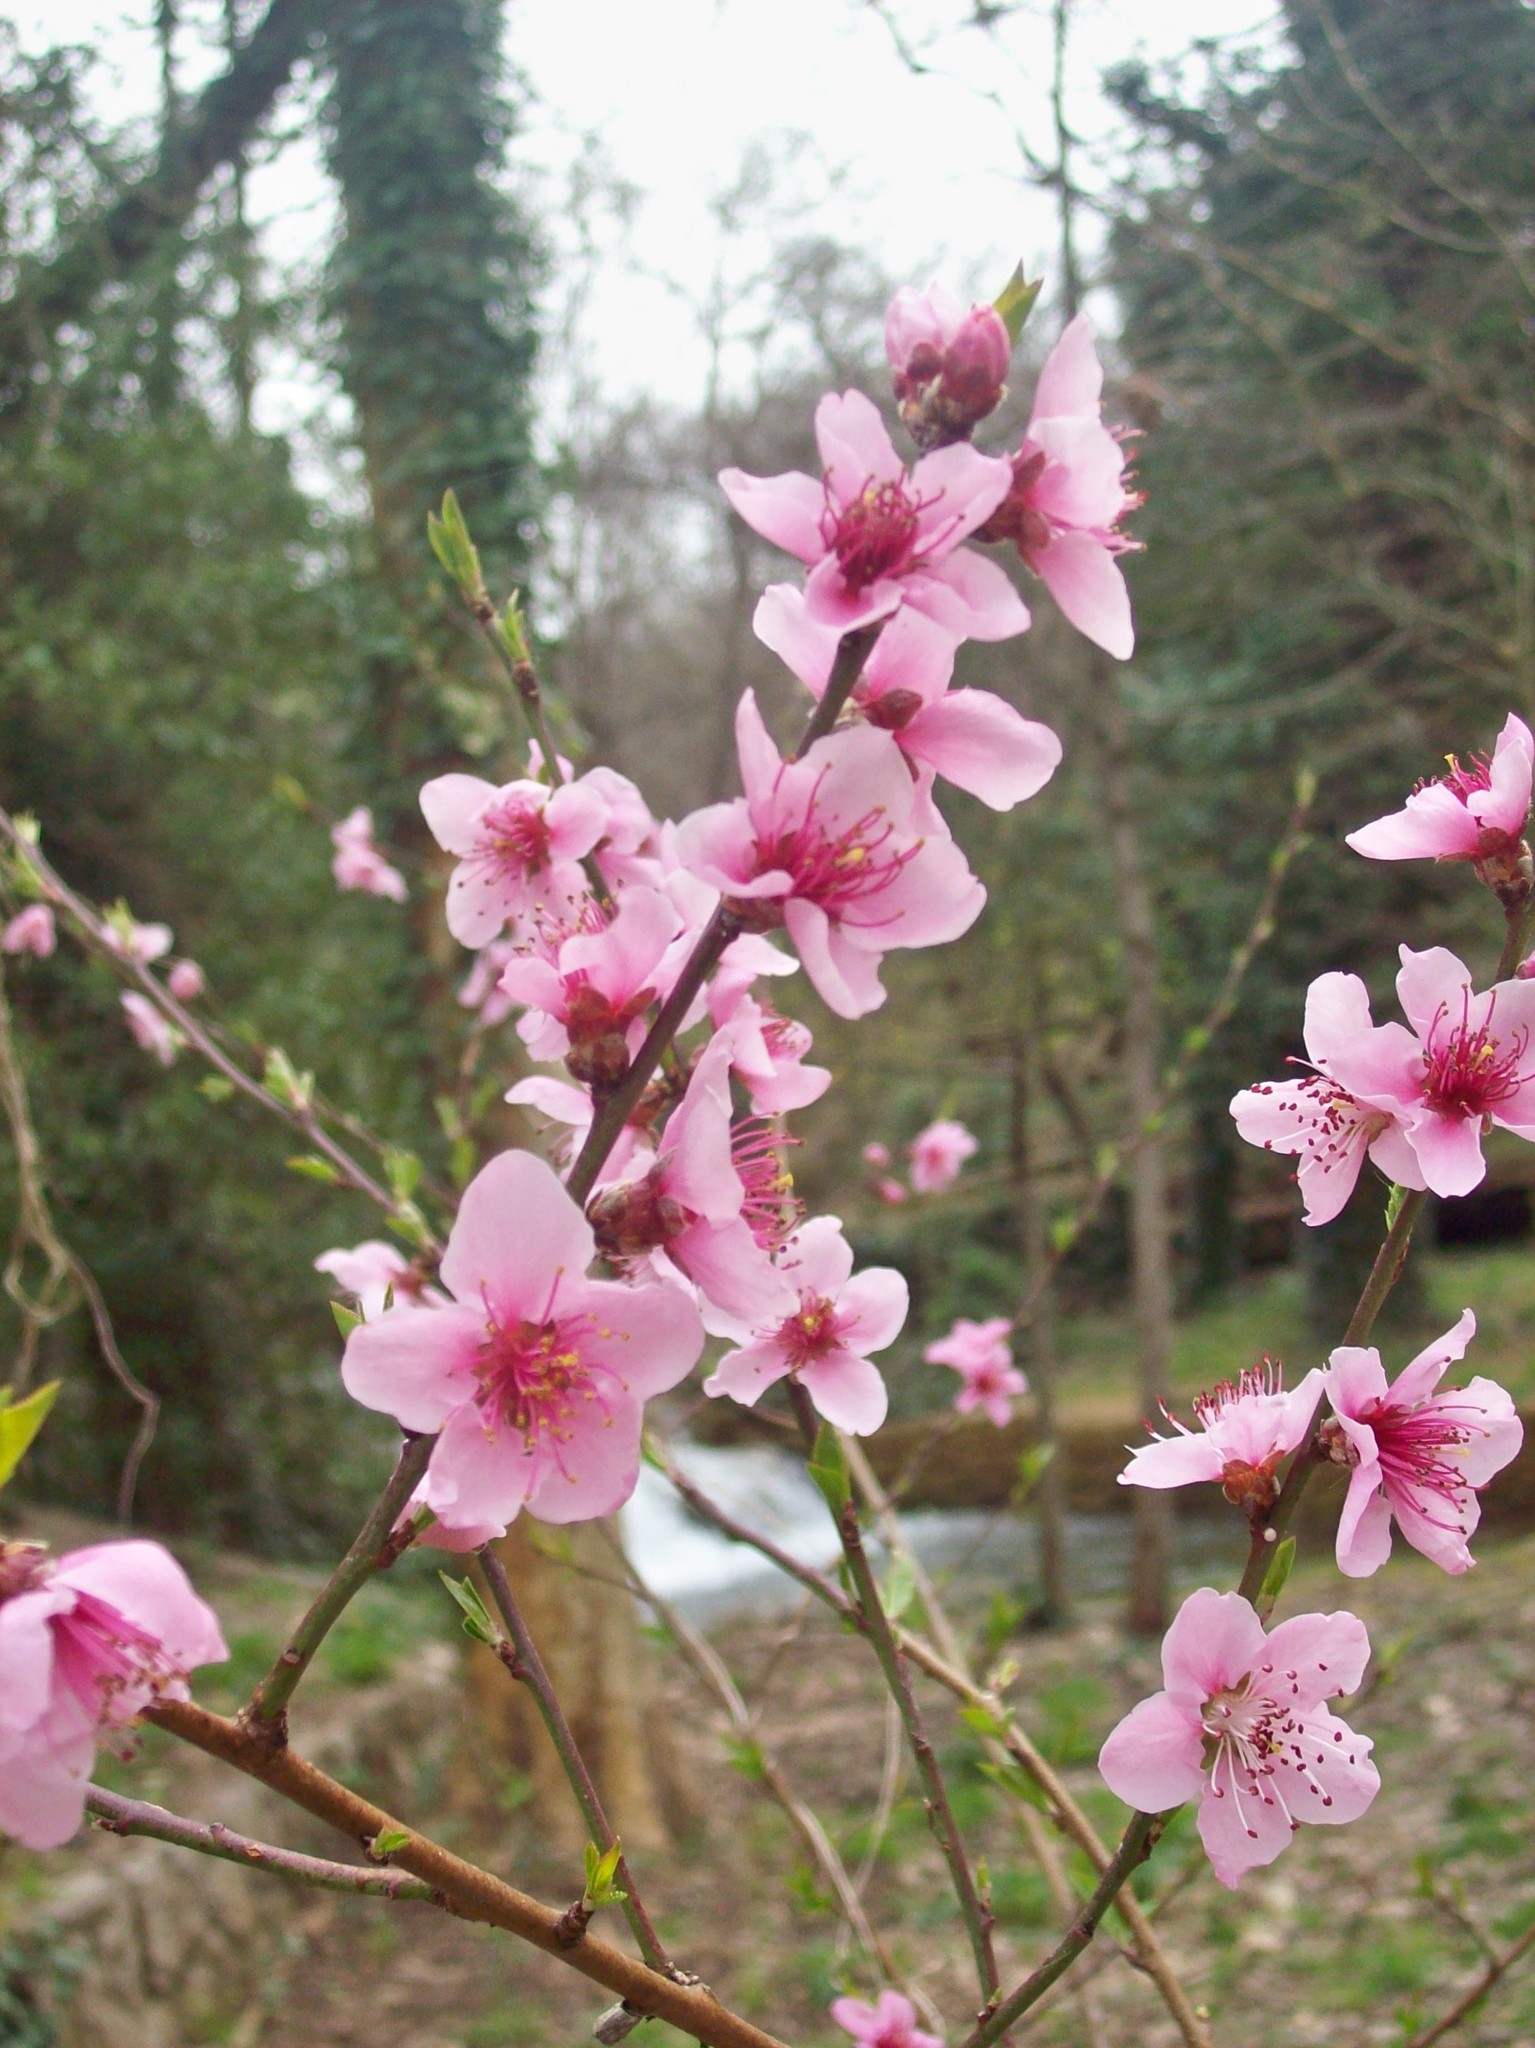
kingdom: Plantae
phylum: Tracheophyta
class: Magnoliopsida
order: Rosales
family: Rosaceae
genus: Prunus
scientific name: Prunus persica
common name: Peach
